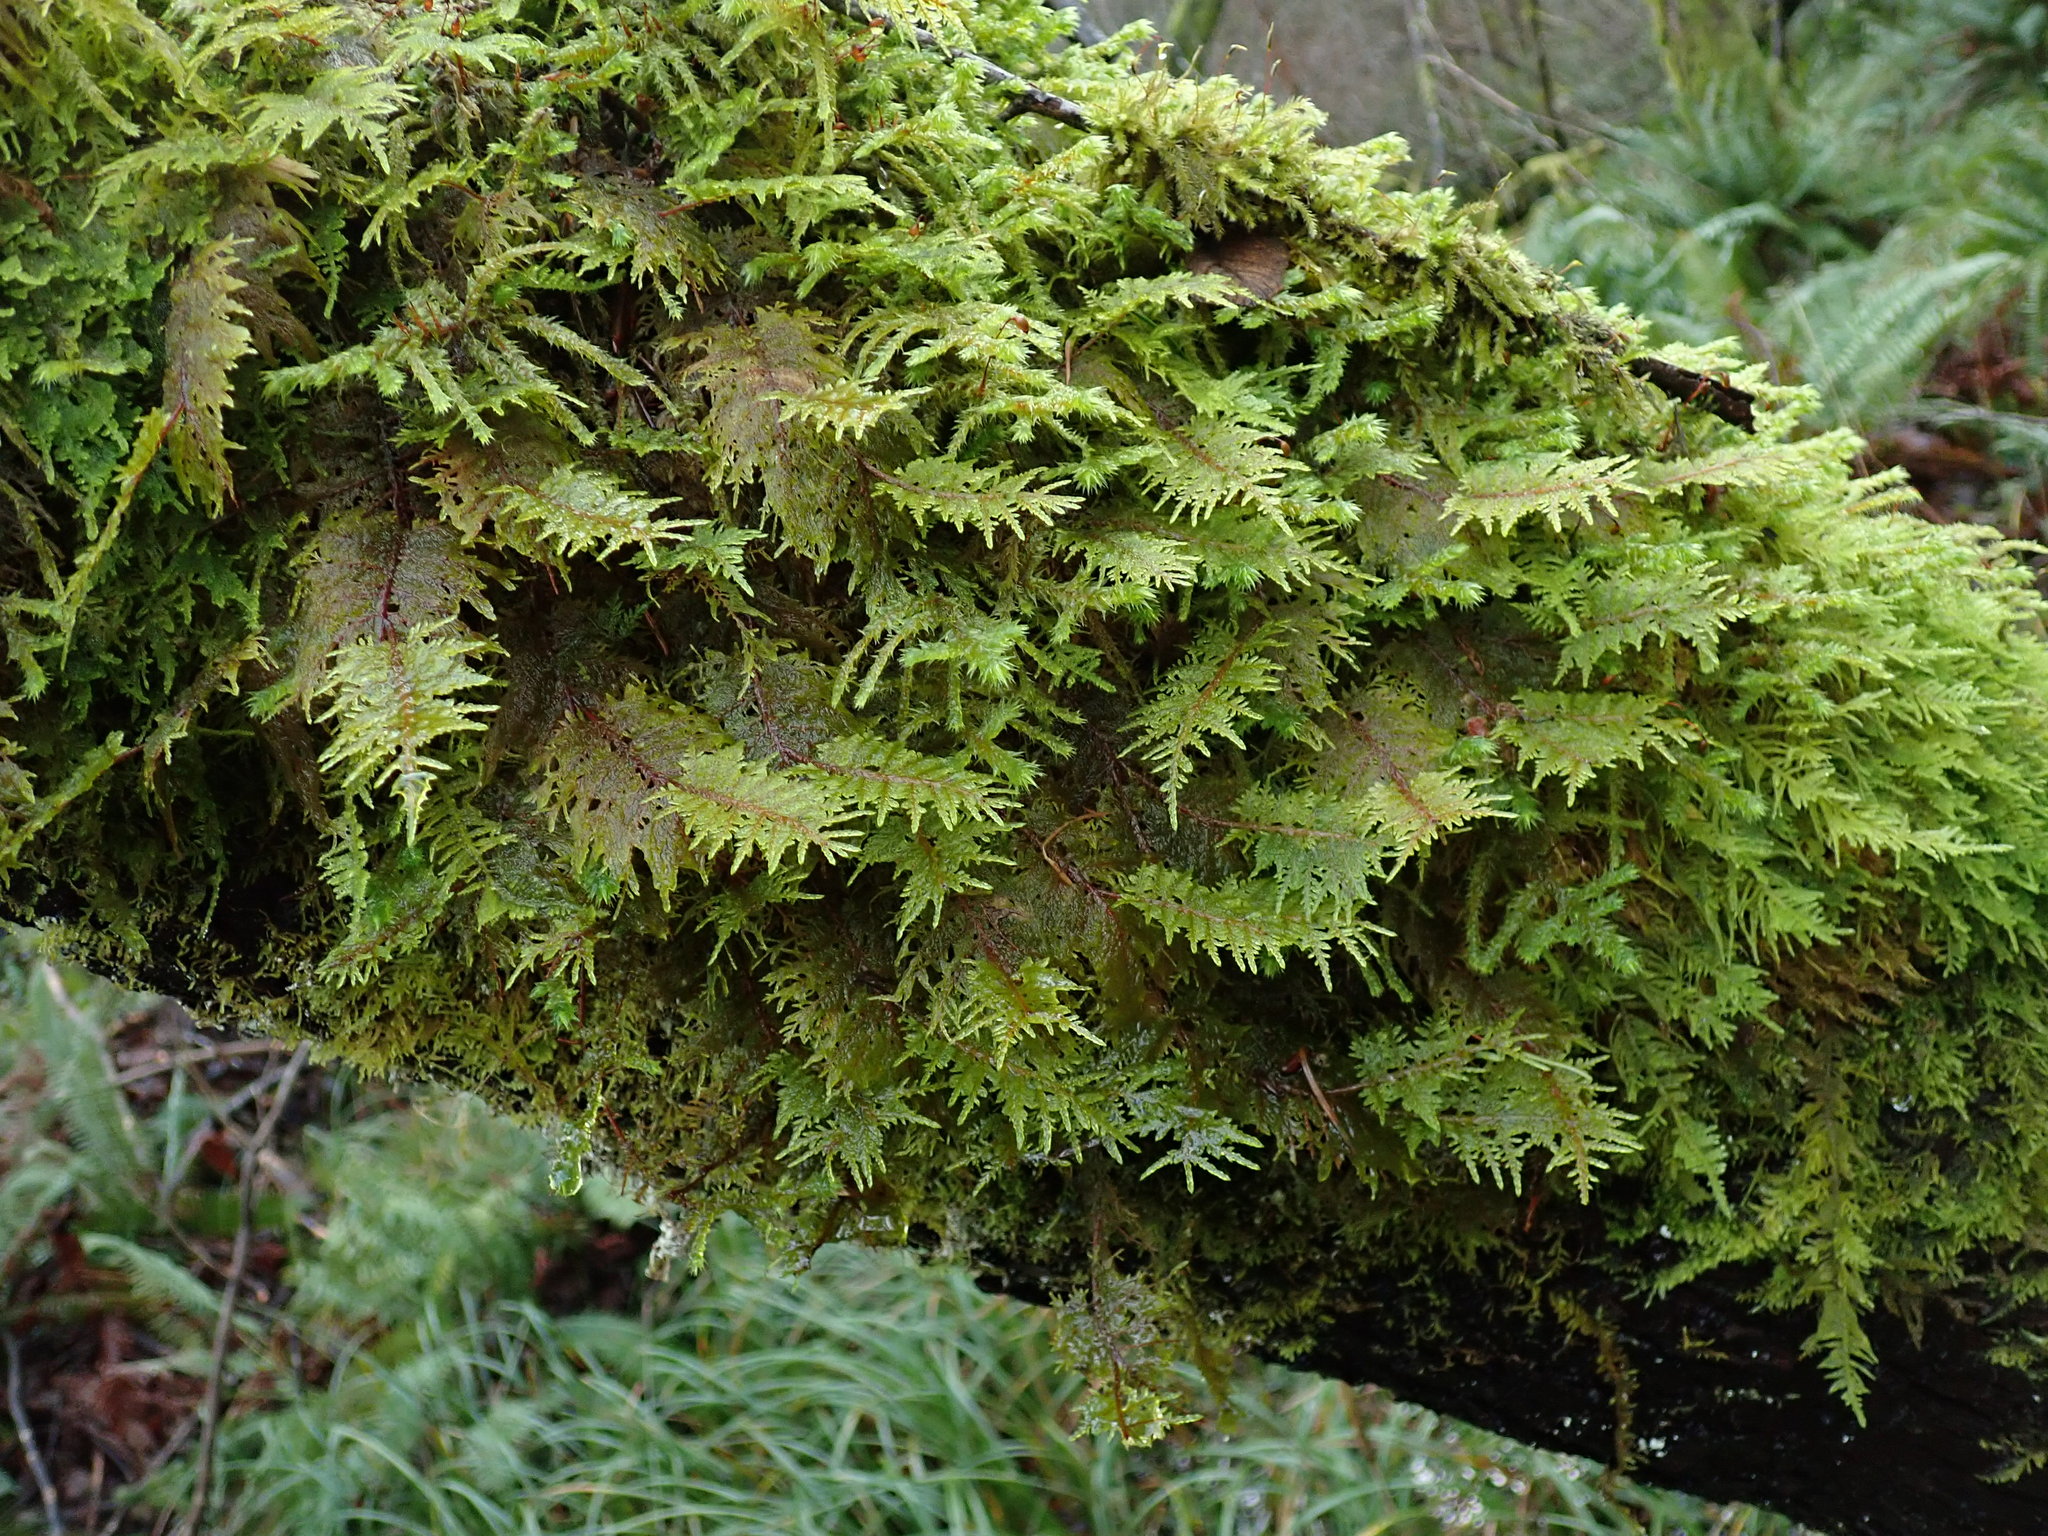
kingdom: Plantae
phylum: Bryophyta
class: Bryopsida
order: Hypnales
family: Hylocomiaceae
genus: Hylocomium
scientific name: Hylocomium splendens
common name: Stairstep moss
